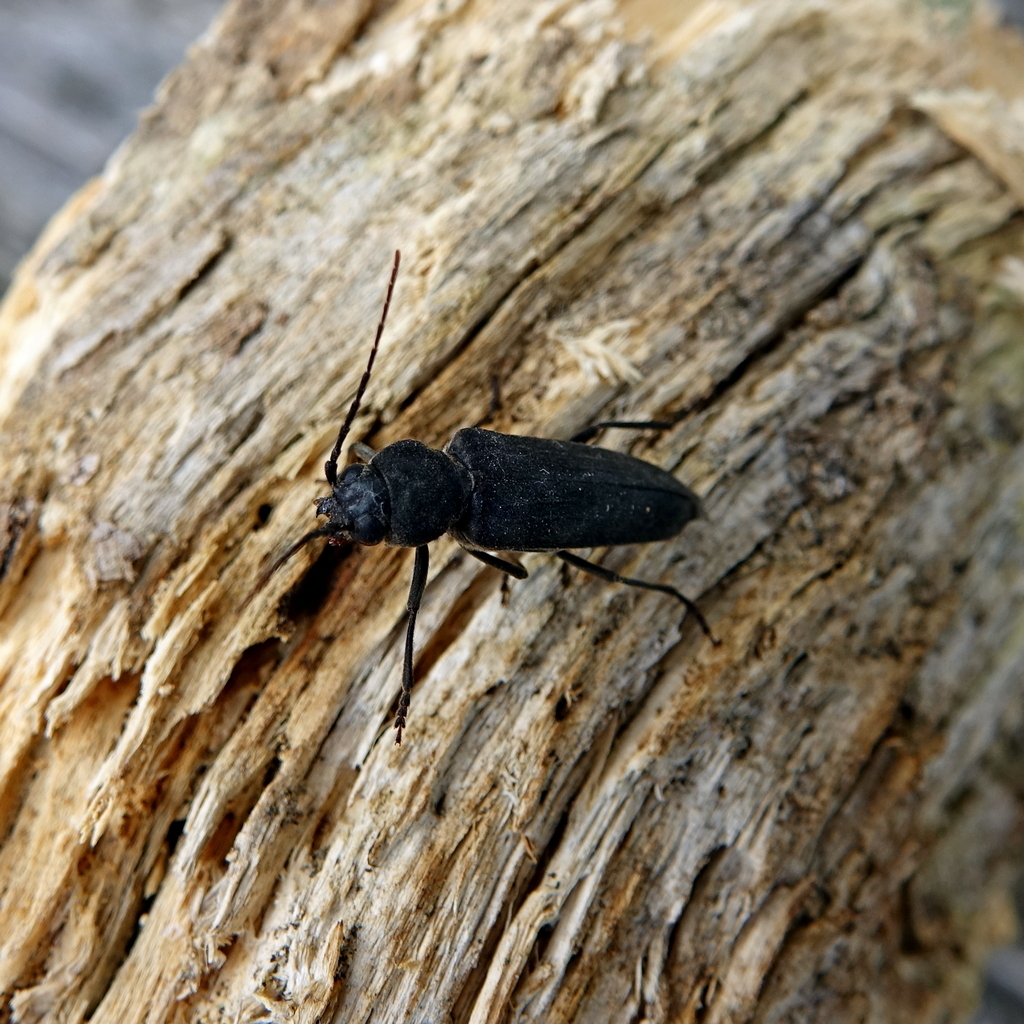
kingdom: Animalia
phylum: Arthropoda
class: Insecta
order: Coleoptera
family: Cerambycidae
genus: Arhopalus
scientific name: Arhopalus ferus
